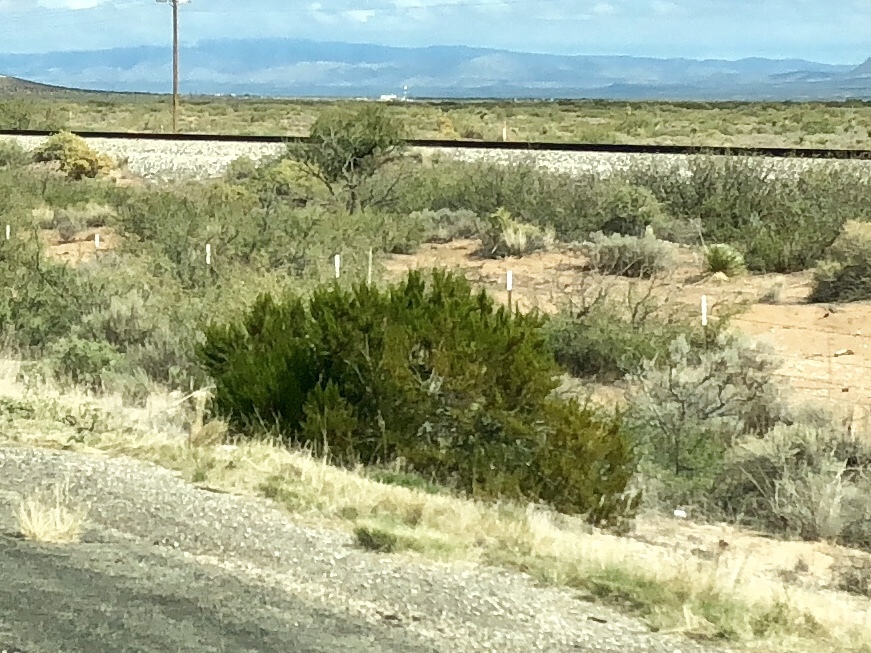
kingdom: Plantae
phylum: Tracheophyta
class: Magnoliopsida
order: Zygophyllales
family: Zygophyllaceae
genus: Larrea
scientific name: Larrea tridentata
